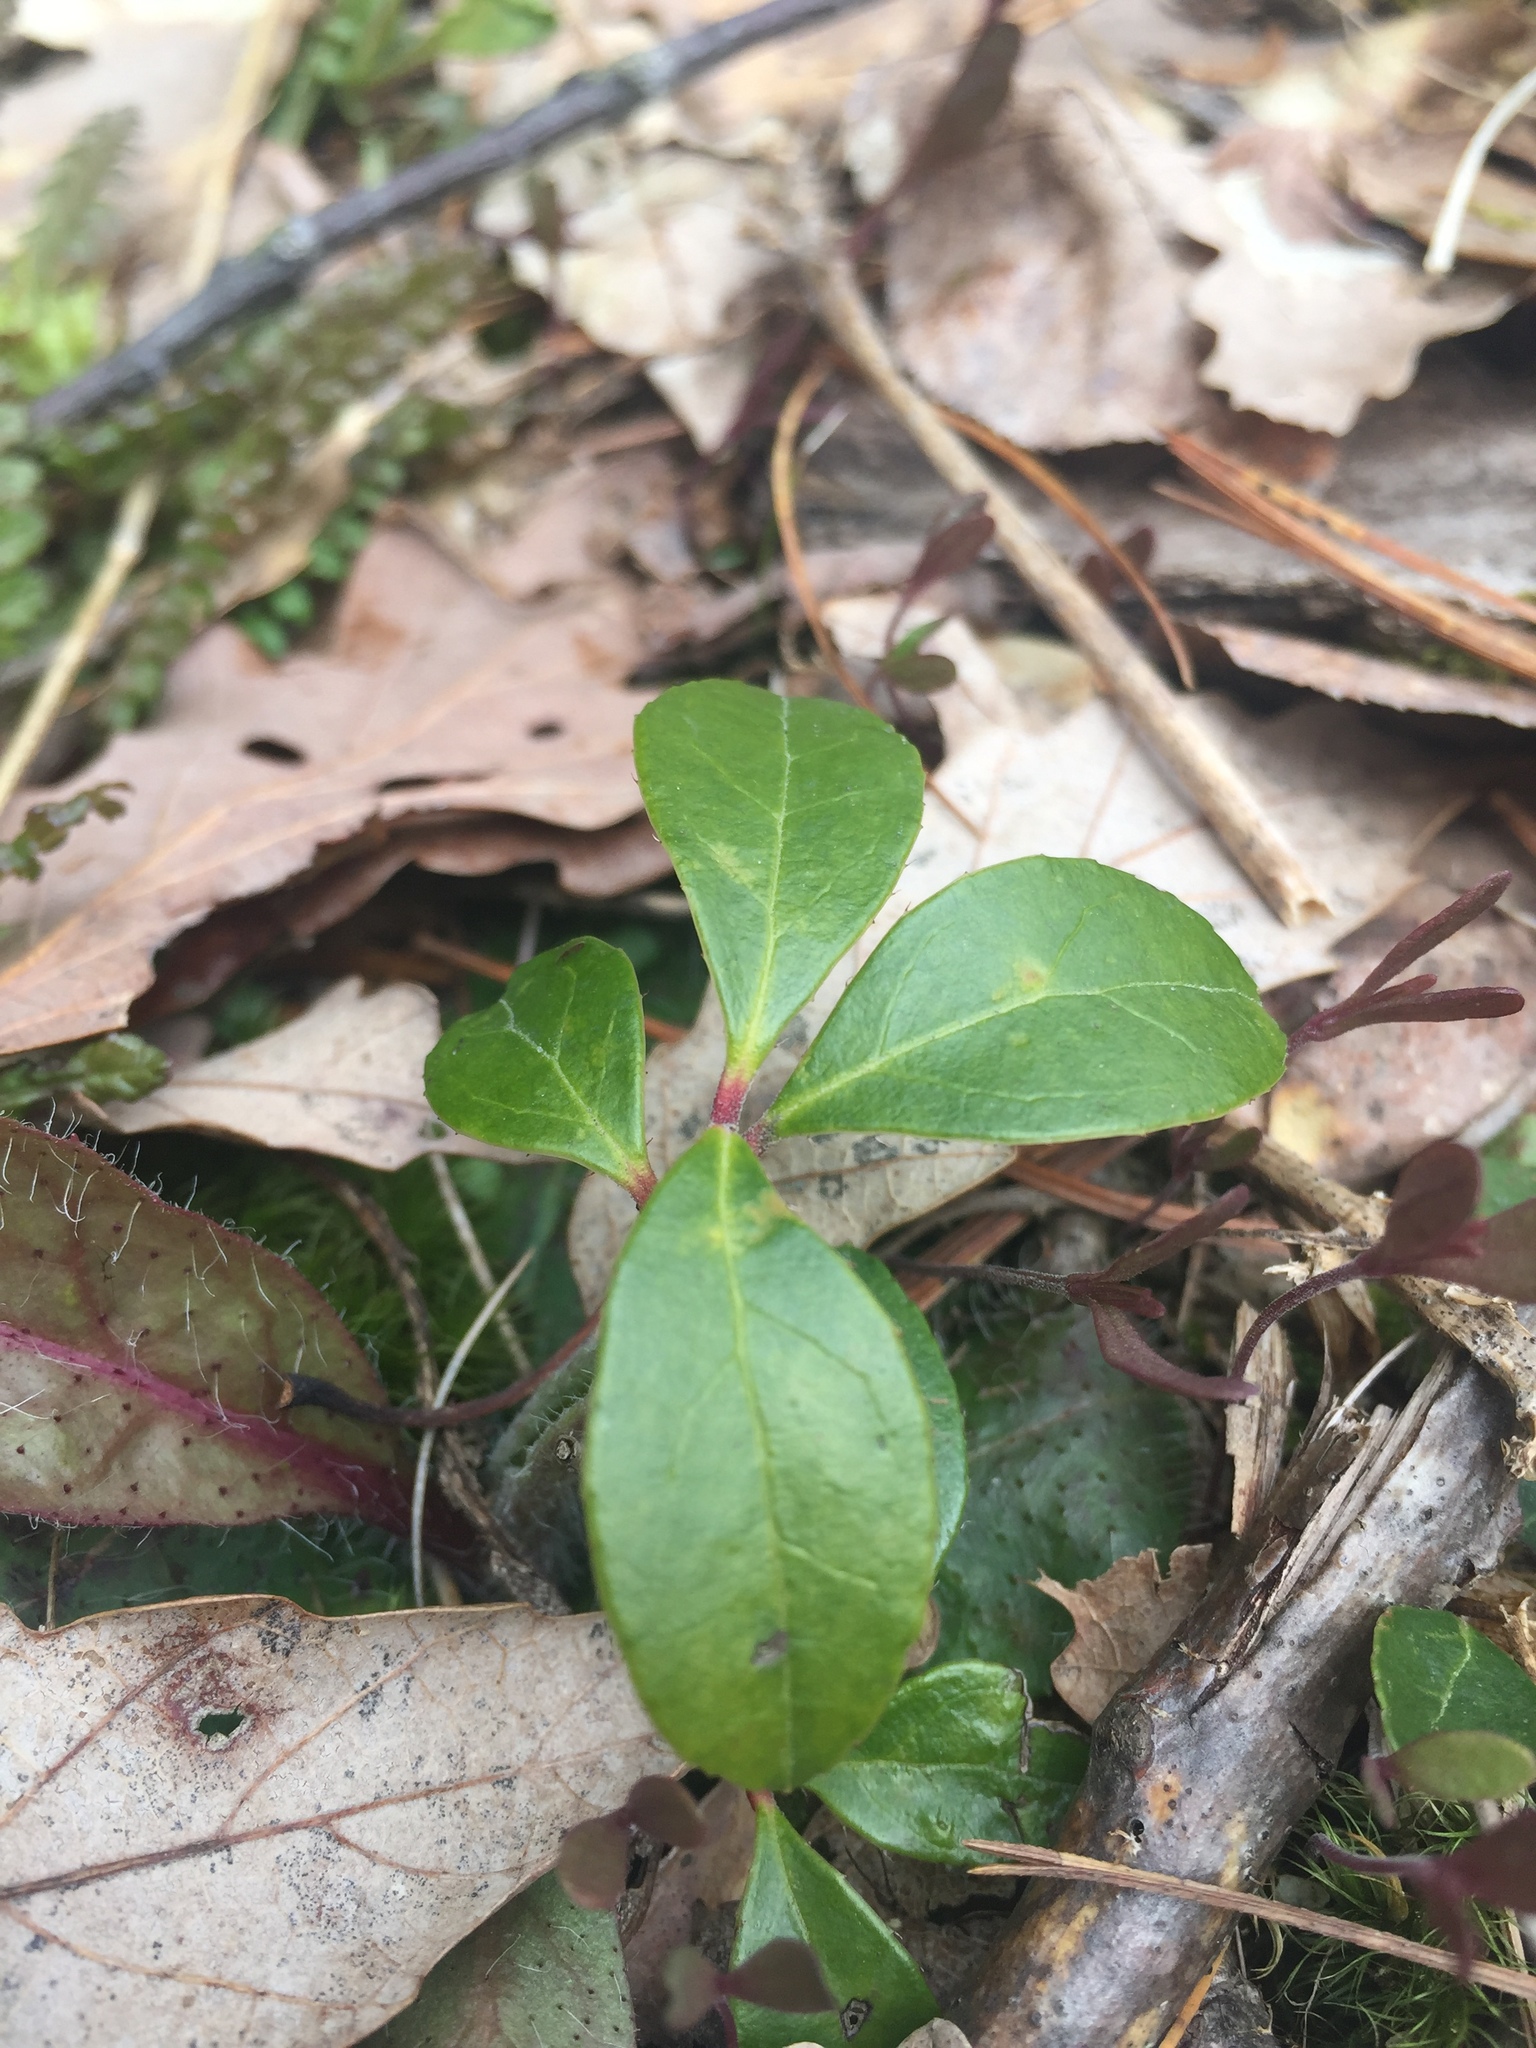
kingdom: Plantae
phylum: Tracheophyta
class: Magnoliopsida
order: Ericales
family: Ericaceae
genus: Gaultheria
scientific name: Gaultheria procumbens
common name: Checkerberry
